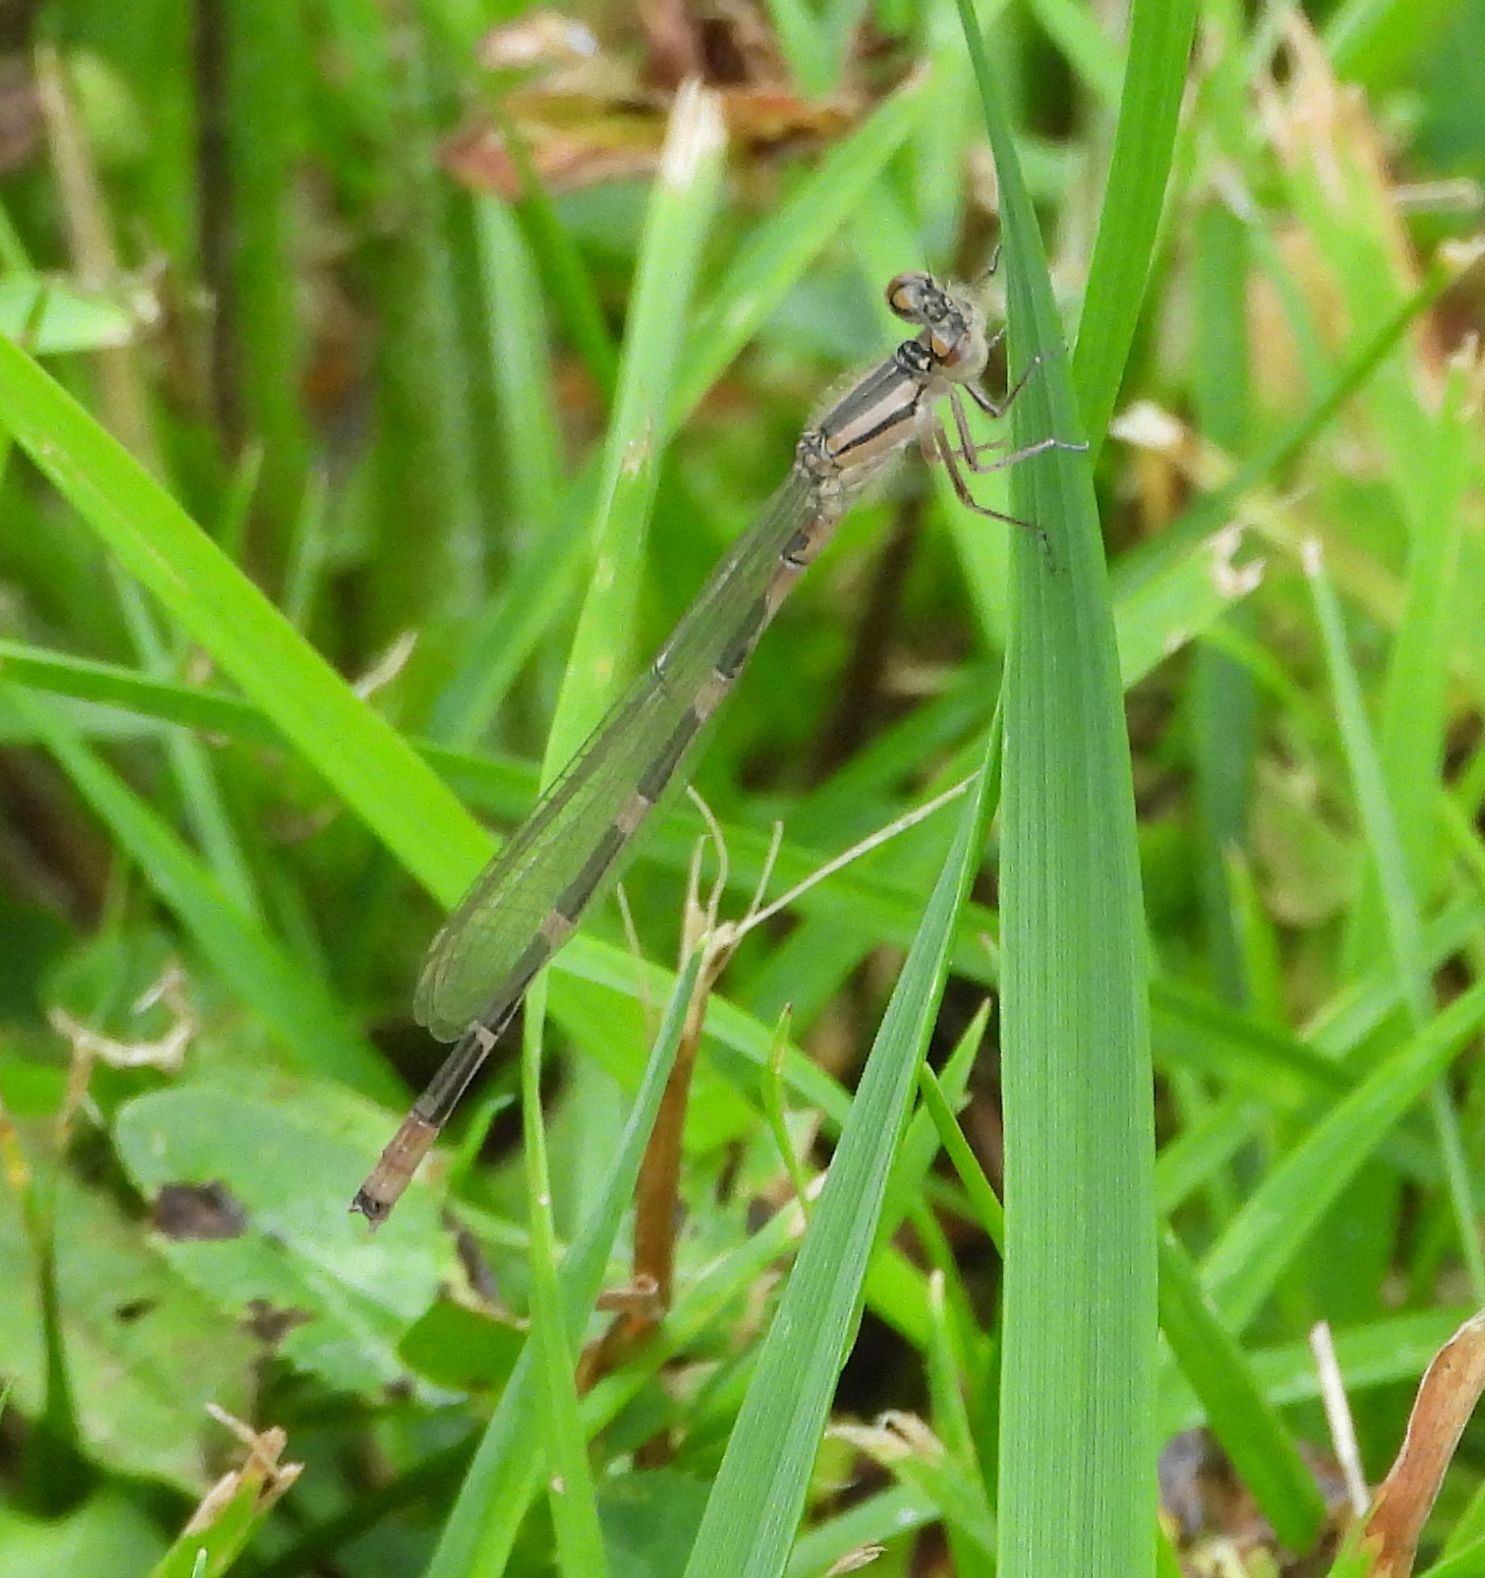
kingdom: Animalia
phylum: Arthropoda
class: Insecta
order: Odonata
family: Coenagrionidae
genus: Enallagma
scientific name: Enallagma carunculatum
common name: Tule bluet
